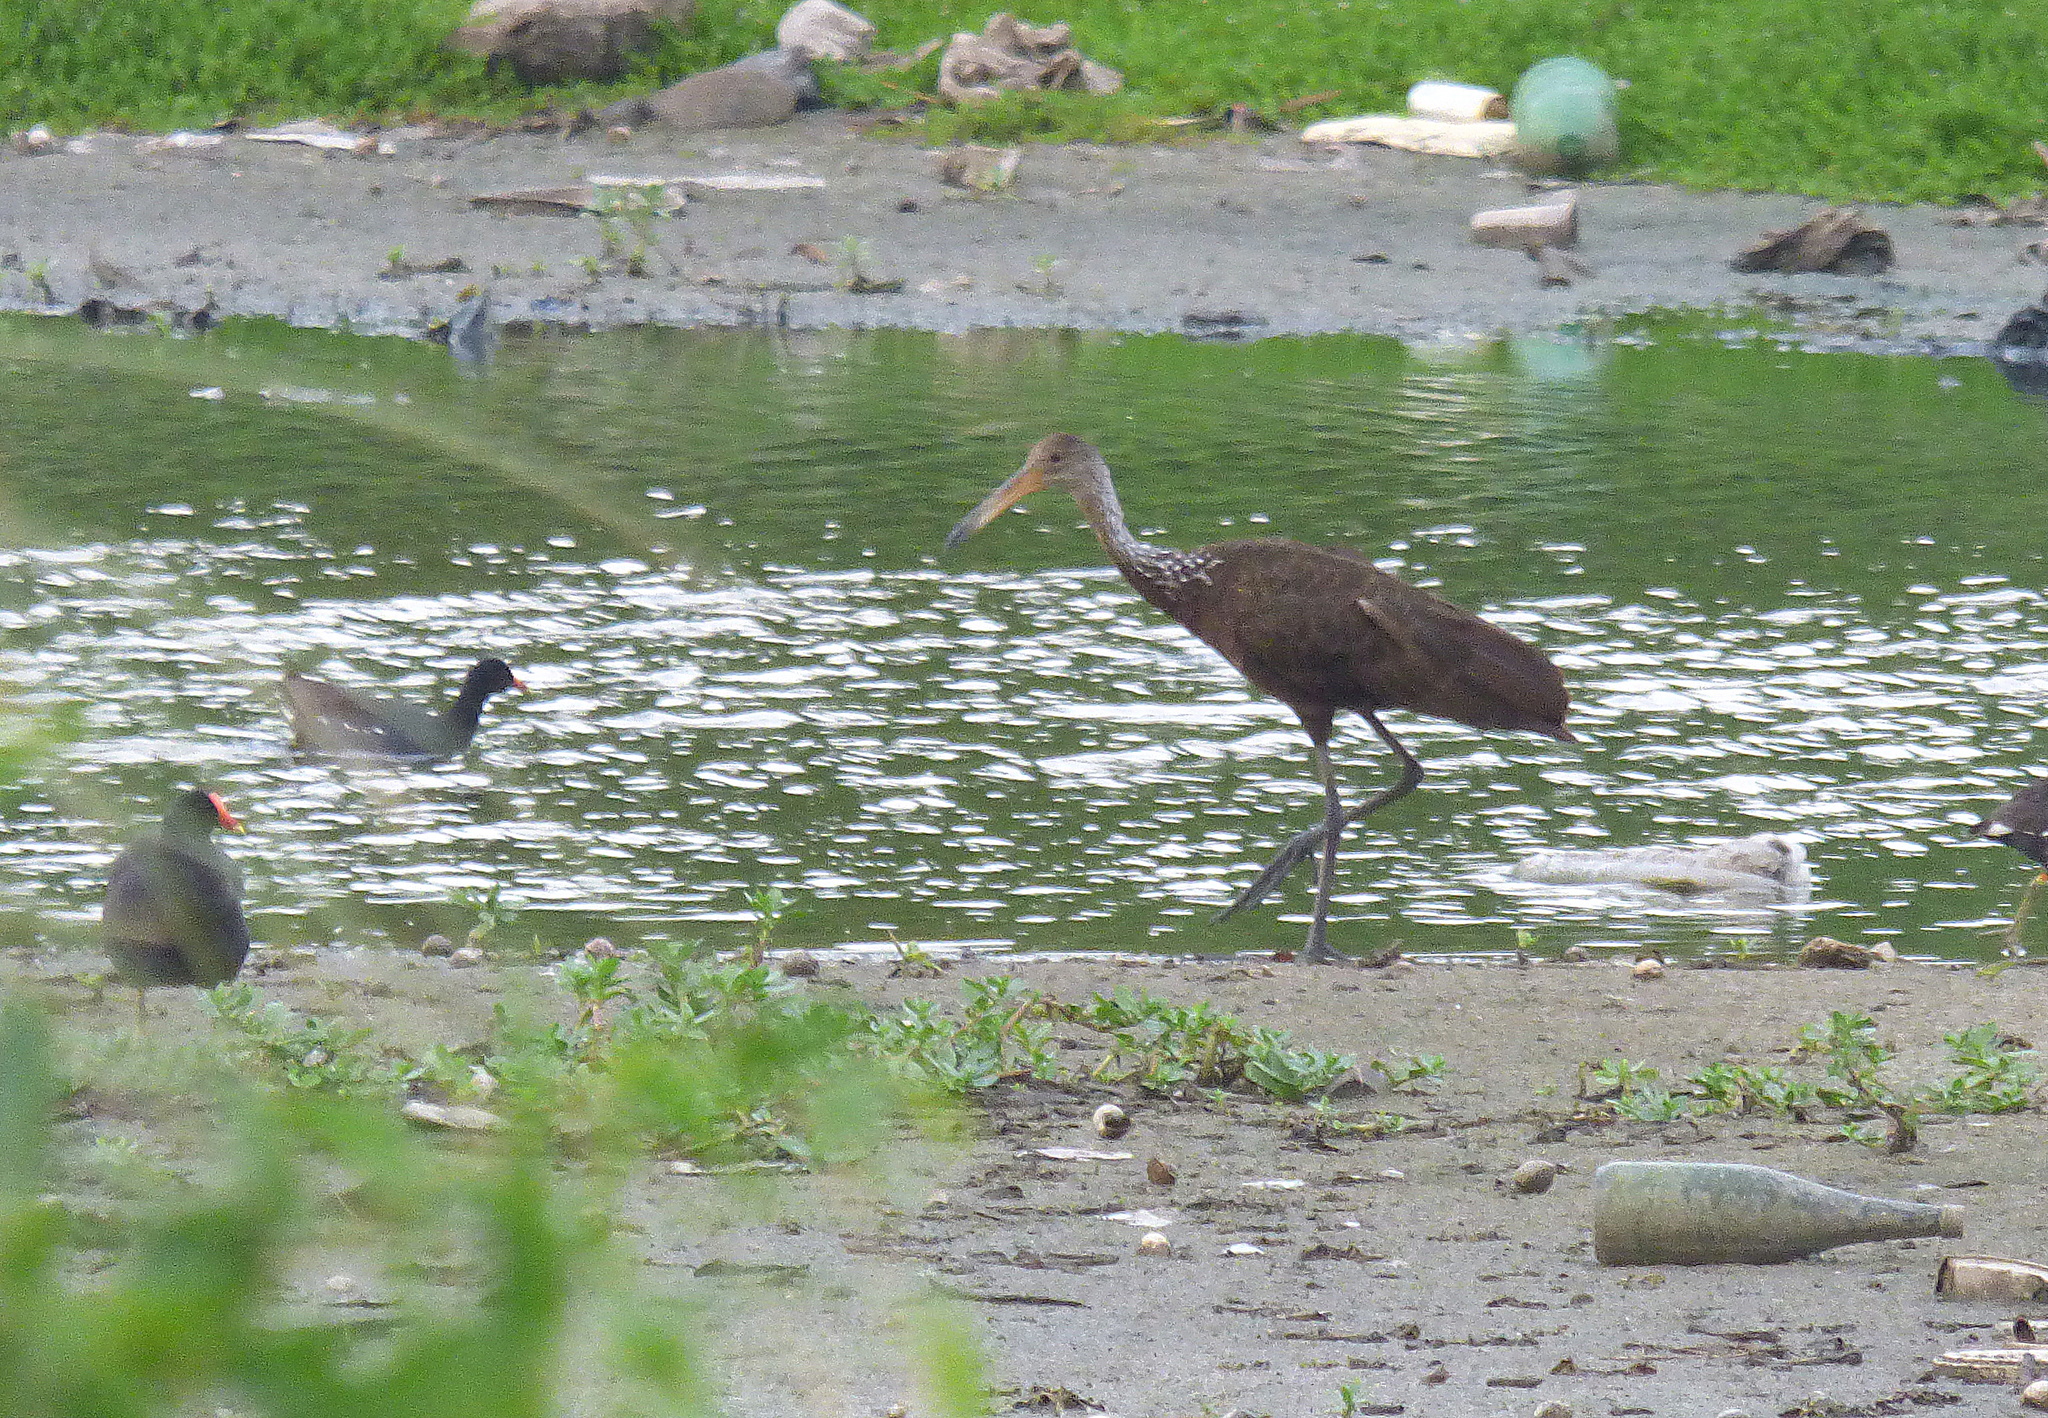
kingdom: Animalia
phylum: Chordata
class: Aves
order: Gruiformes
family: Aramidae
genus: Aramus
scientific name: Aramus guarauna
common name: Limpkin
